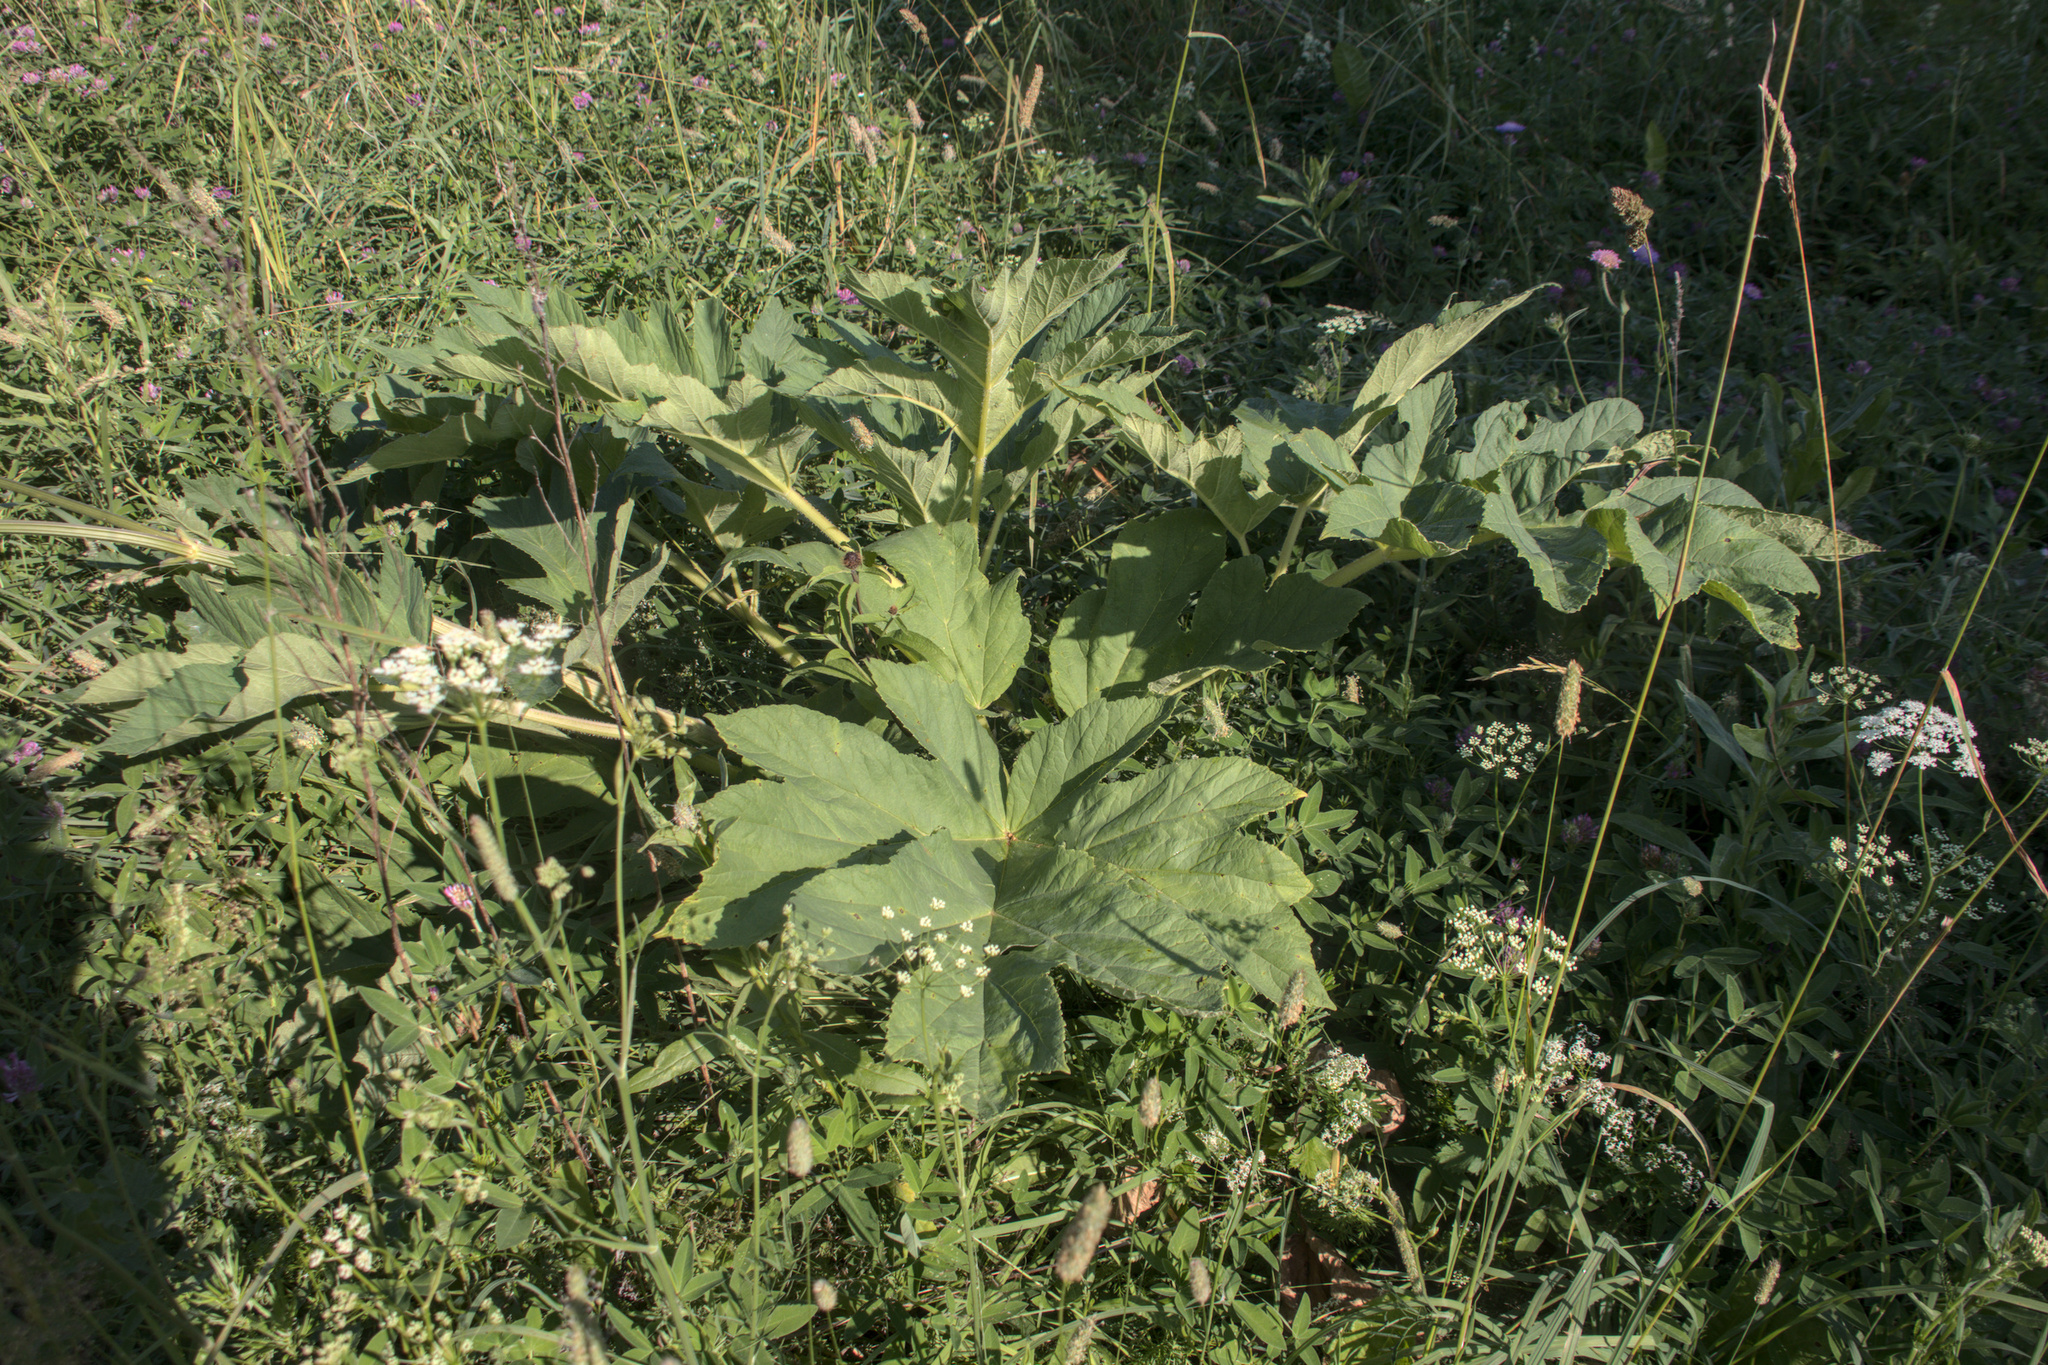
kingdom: Plantae
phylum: Tracheophyta
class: Magnoliopsida
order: Apiales
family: Apiaceae
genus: Heracleum
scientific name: Heracleum sphondylium
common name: Hogweed
